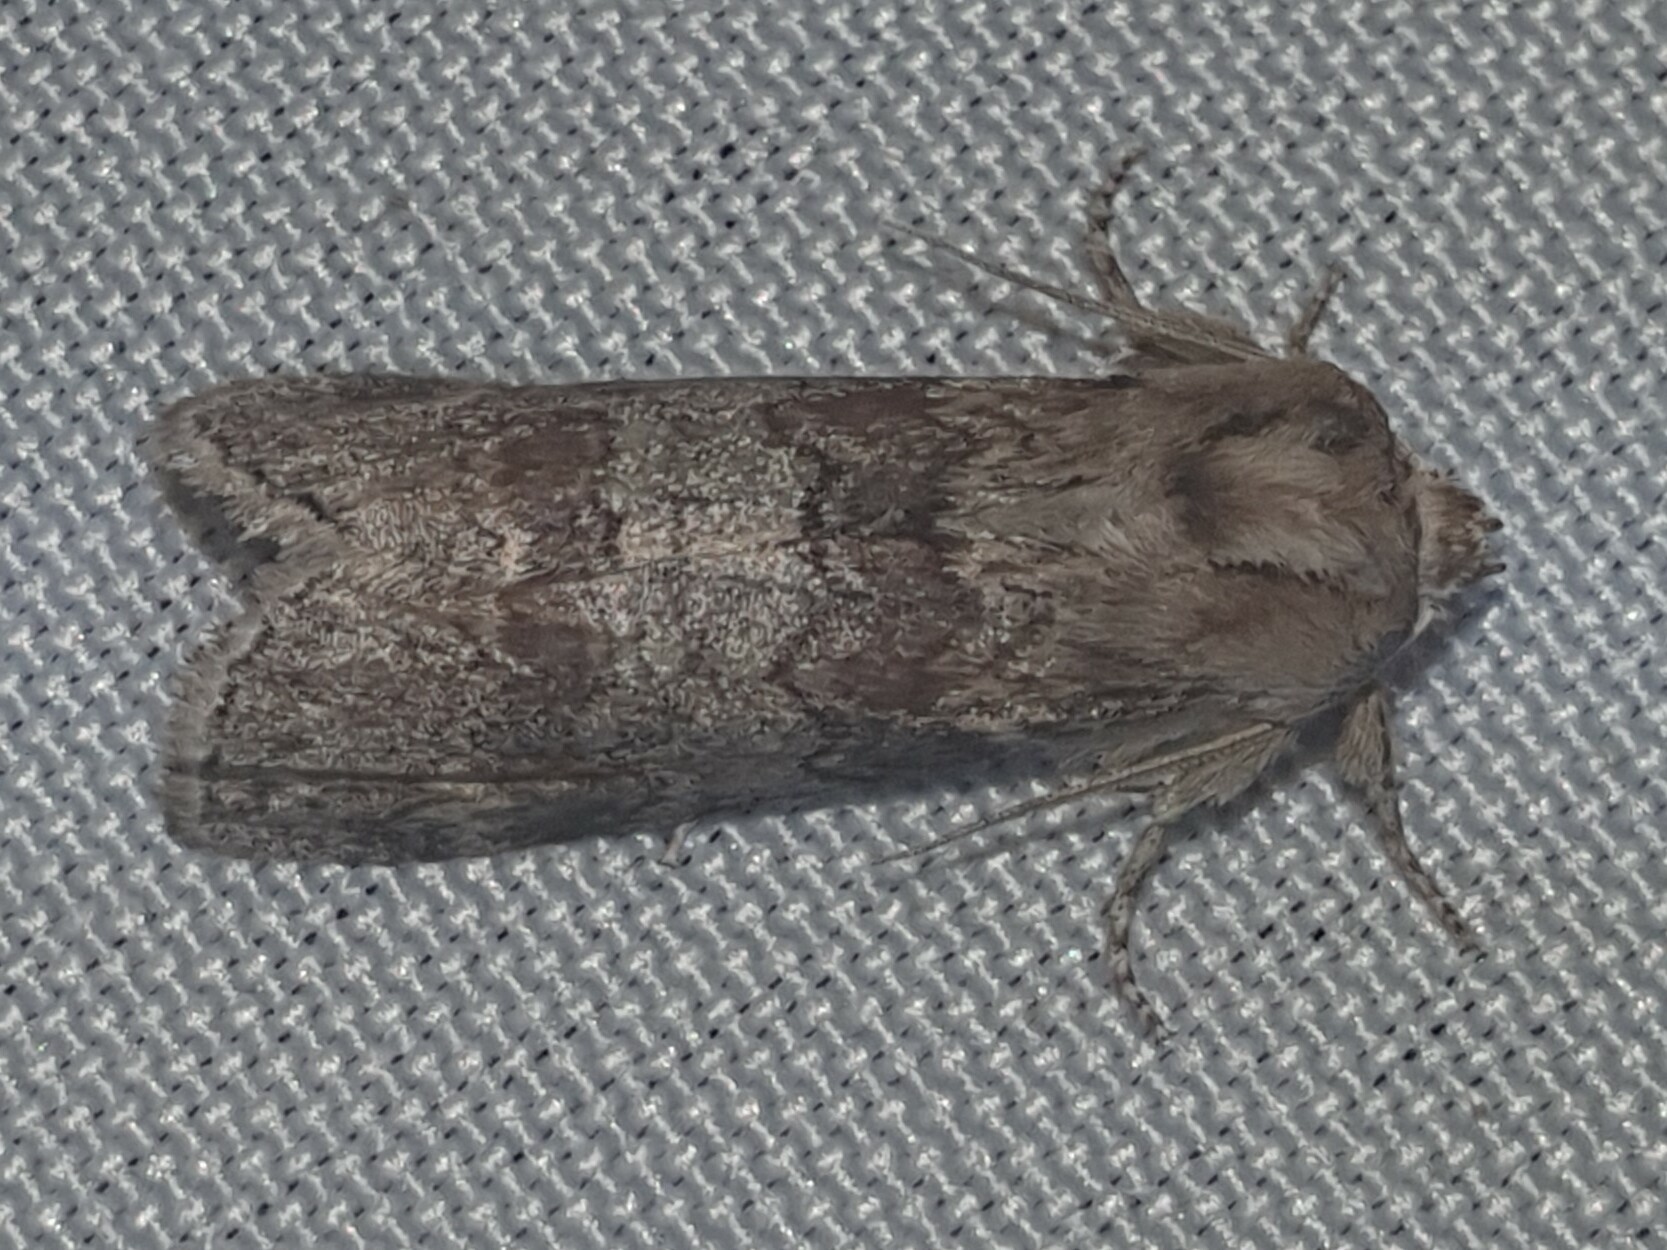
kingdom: Animalia
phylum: Arthropoda
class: Insecta
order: Lepidoptera
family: Drepanidae
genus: Cymatophorina
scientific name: Cymatophorina diluta
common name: Oak lutestring
